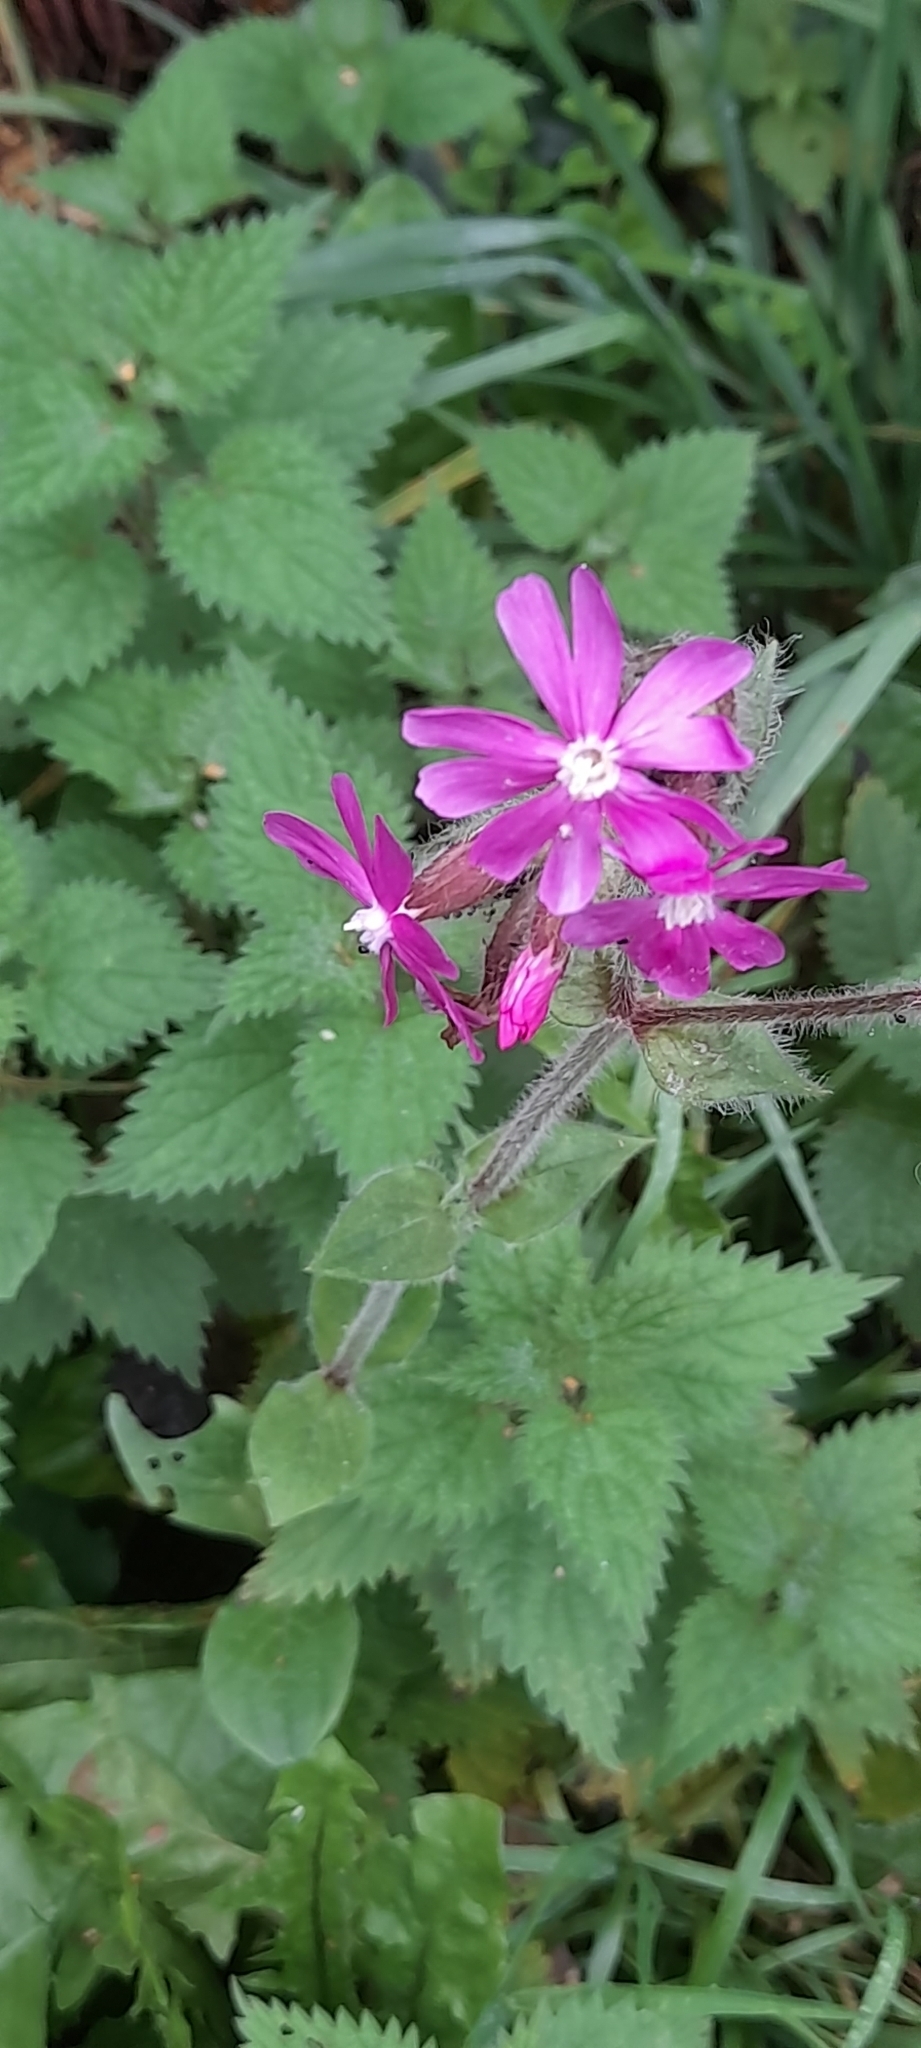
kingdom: Plantae
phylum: Tracheophyta
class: Magnoliopsida
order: Caryophyllales
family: Caryophyllaceae
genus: Silene
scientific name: Silene dioica
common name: Red campion
